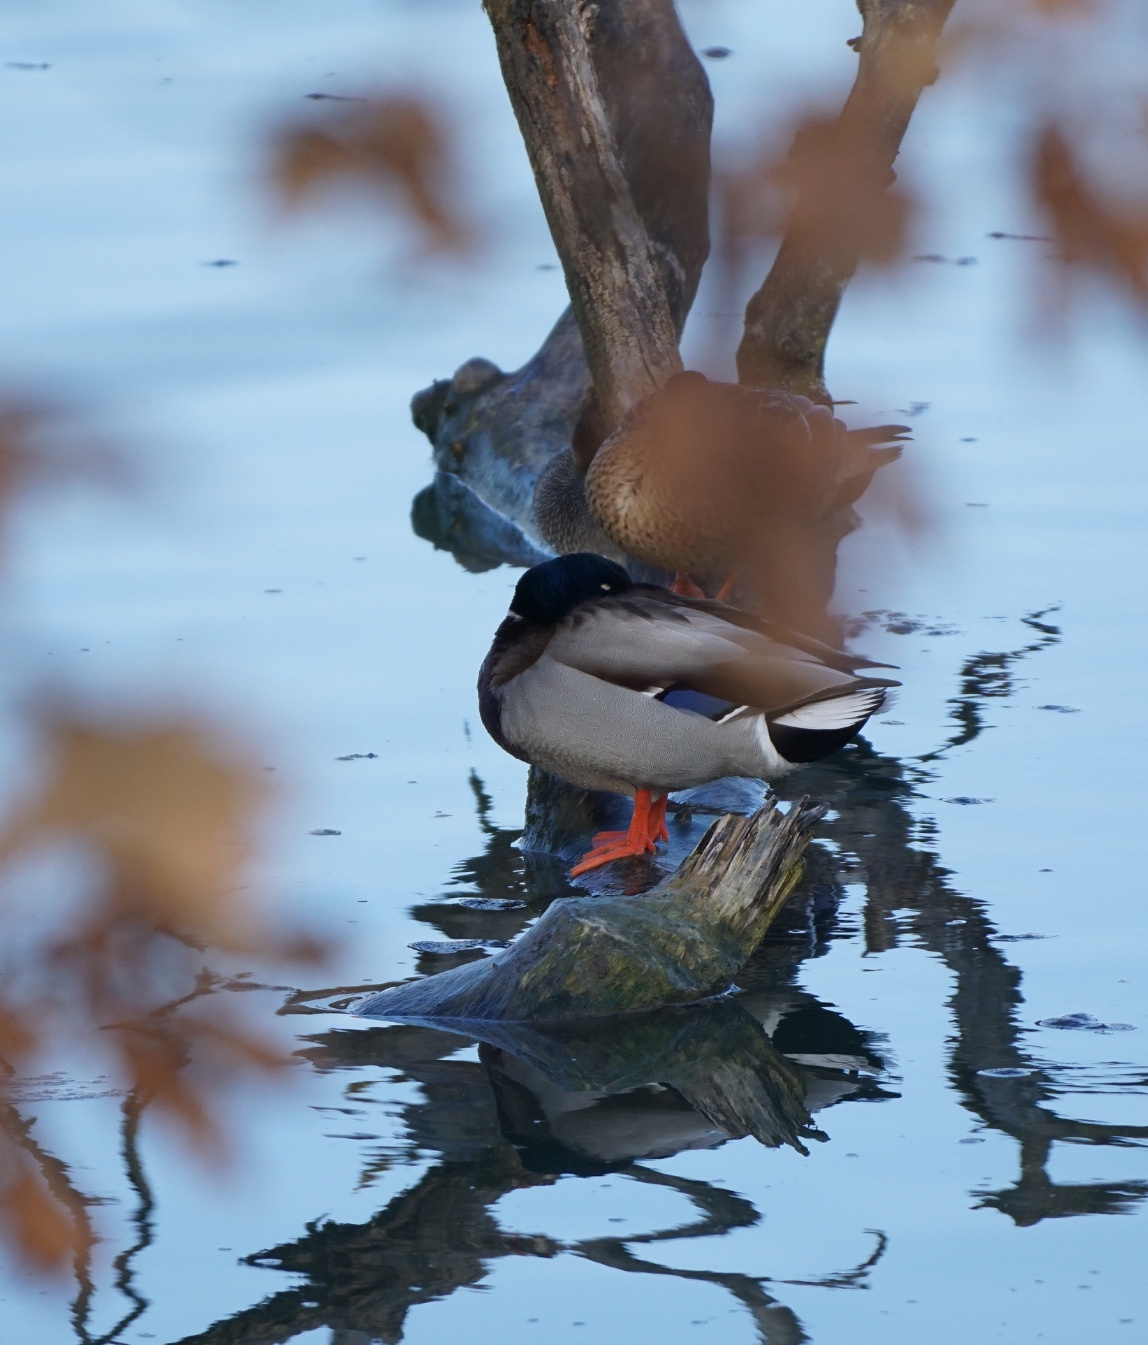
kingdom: Animalia
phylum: Chordata
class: Aves
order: Anseriformes
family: Anatidae
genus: Anas
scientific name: Anas platyrhynchos
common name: Mallard
